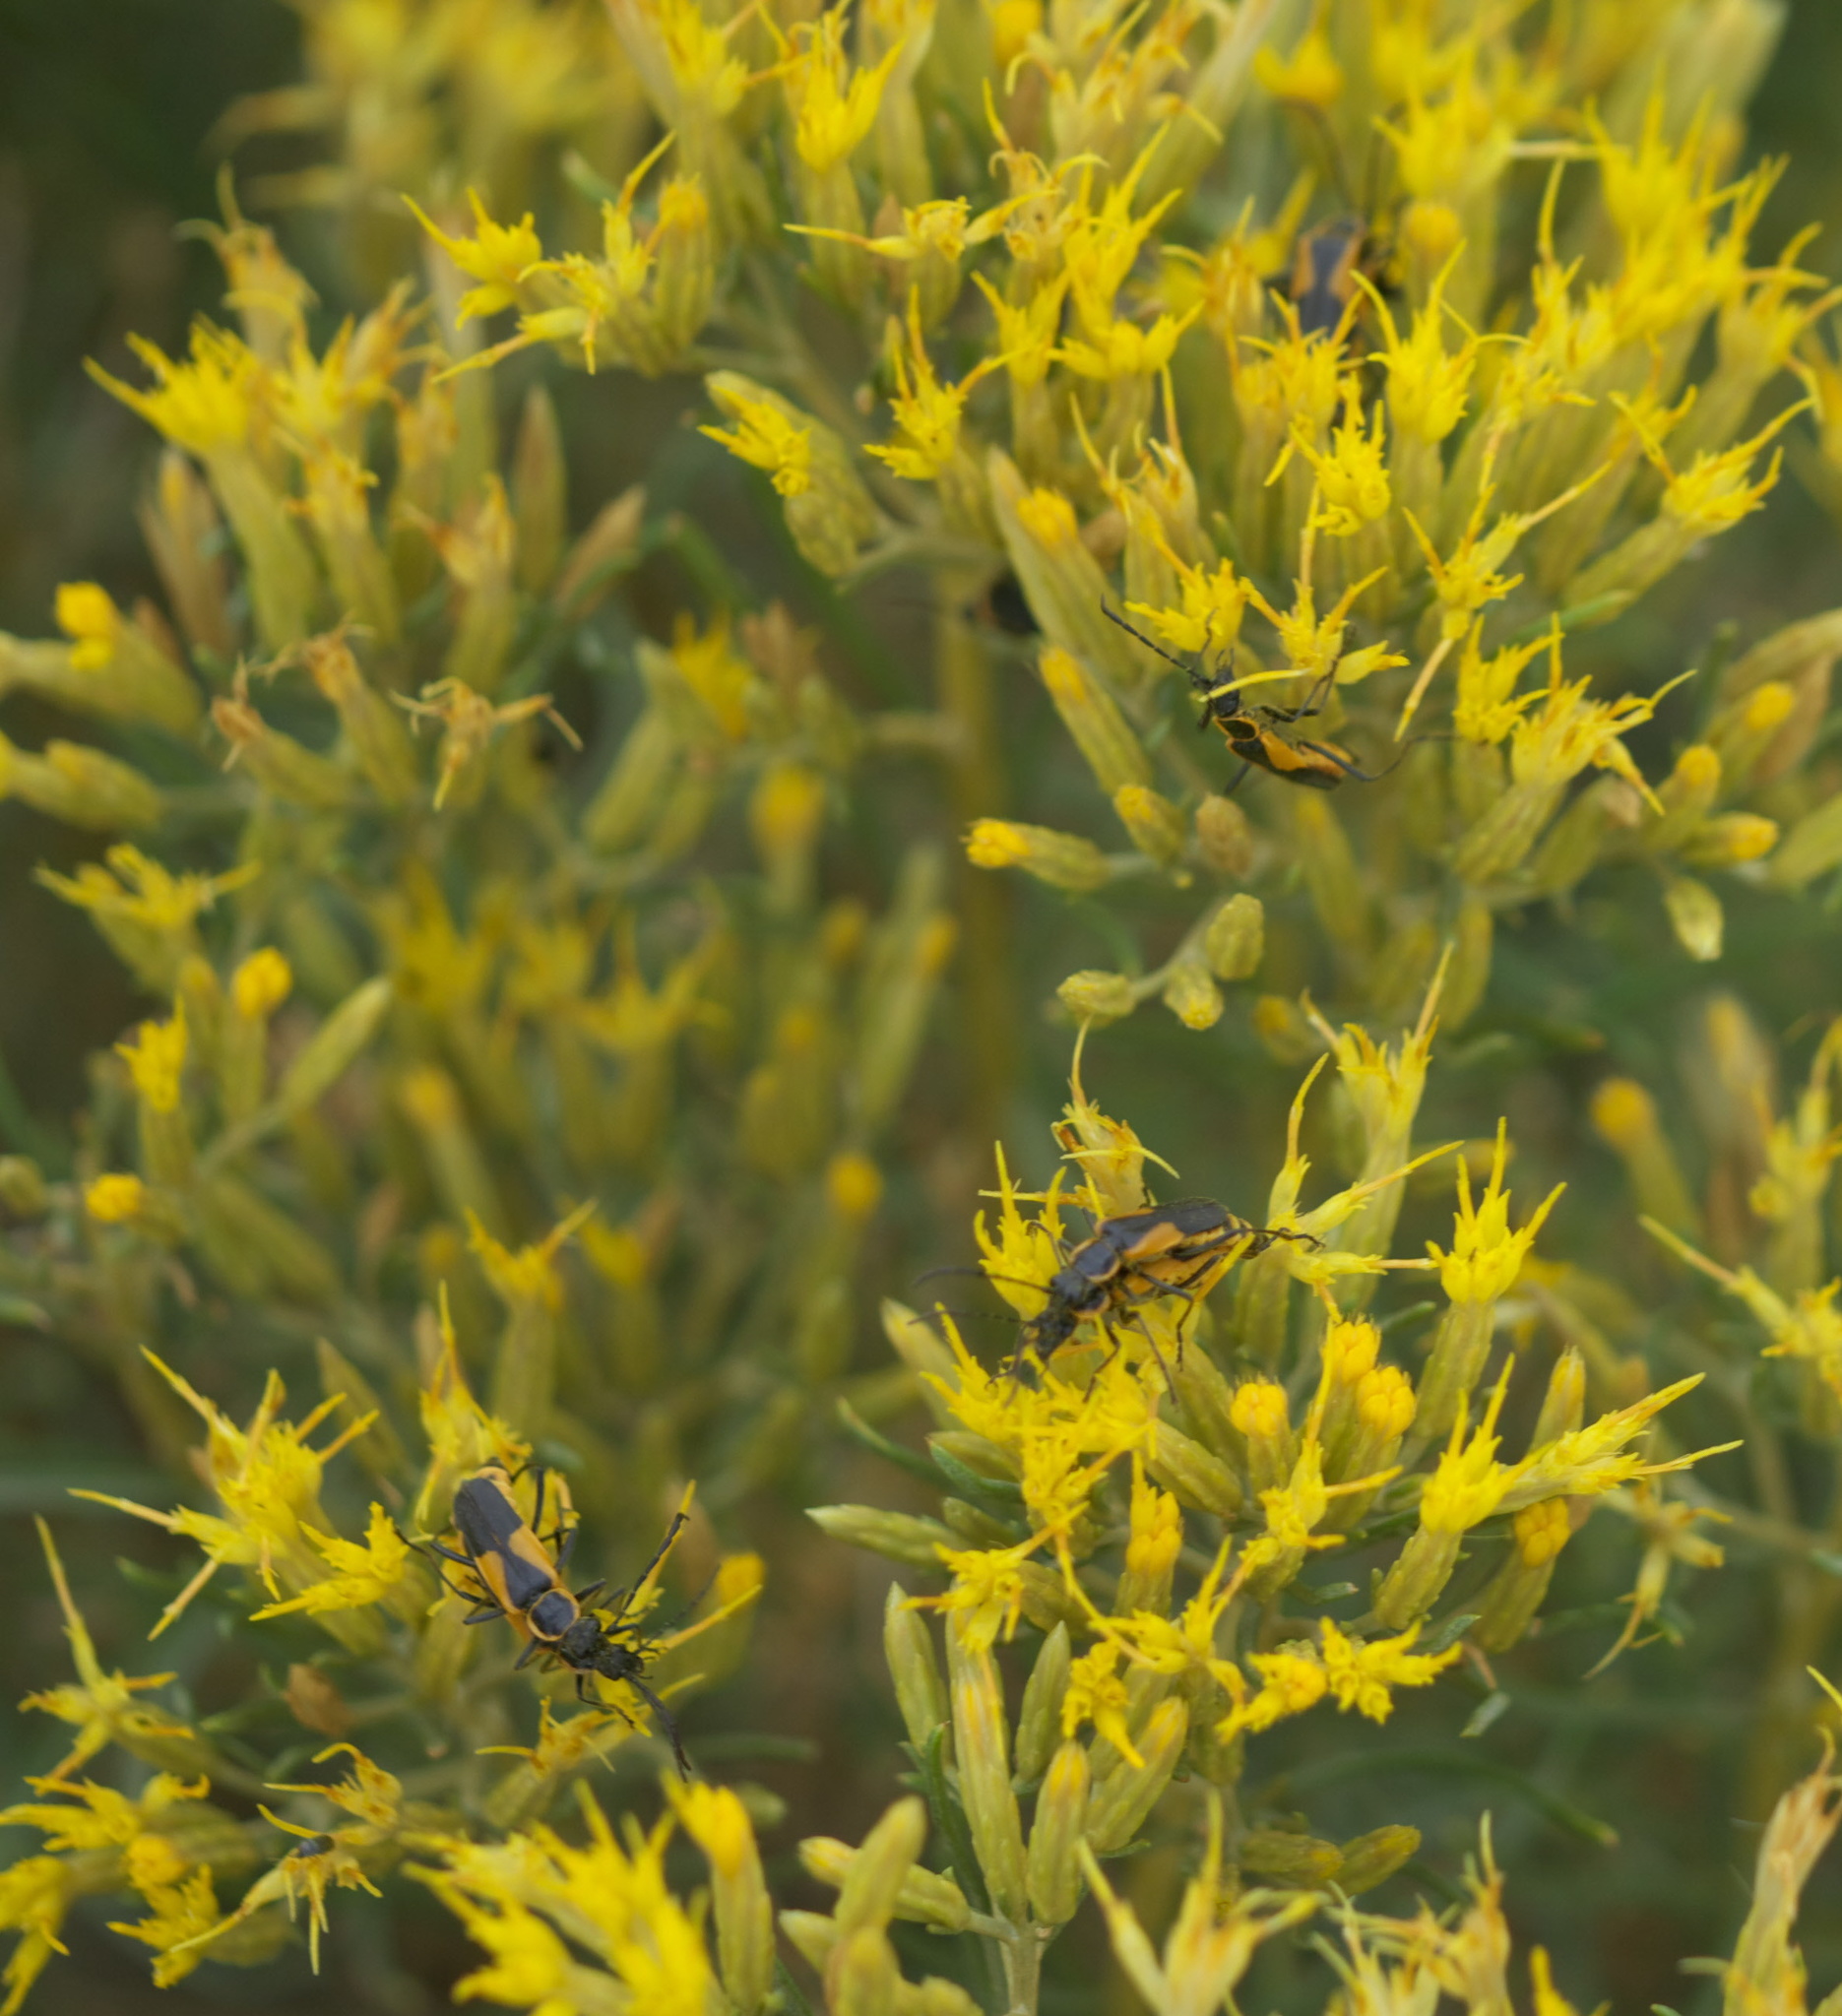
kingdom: Animalia
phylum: Arthropoda
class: Insecta
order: Coleoptera
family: Cantharidae
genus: Chauliognathus
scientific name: Chauliognathus deceptus
